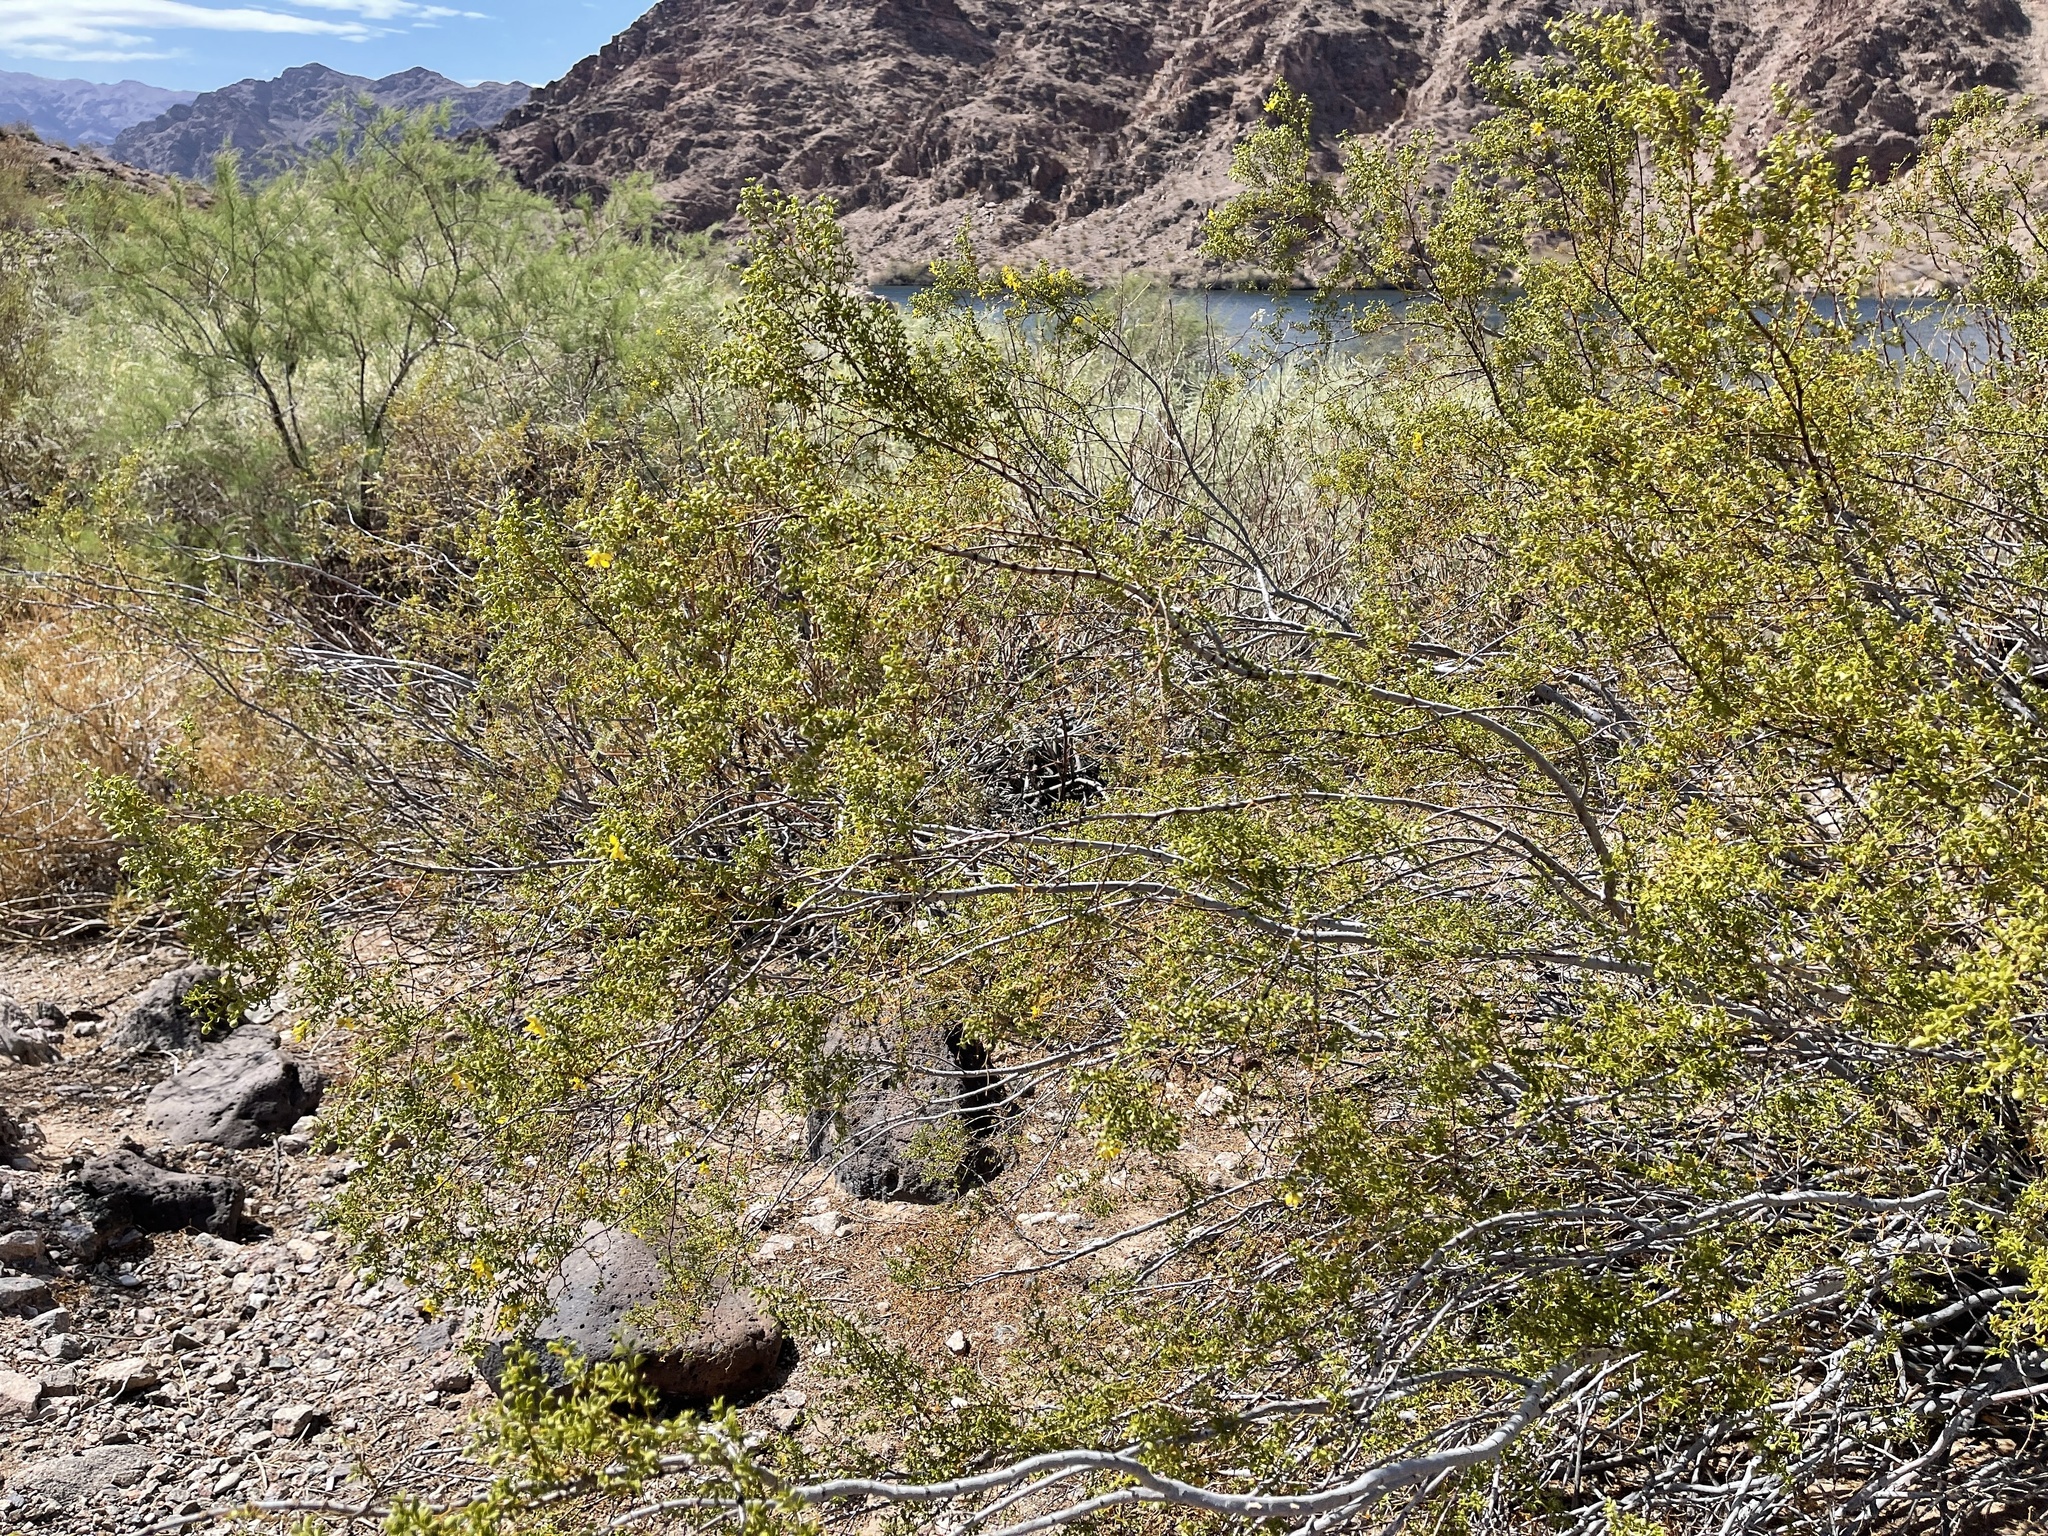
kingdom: Plantae
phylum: Tracheophyta
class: Magnoliopsida
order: Zygophyllales
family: Zygophyllaceae
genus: Larrea
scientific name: Larrea tridentata
